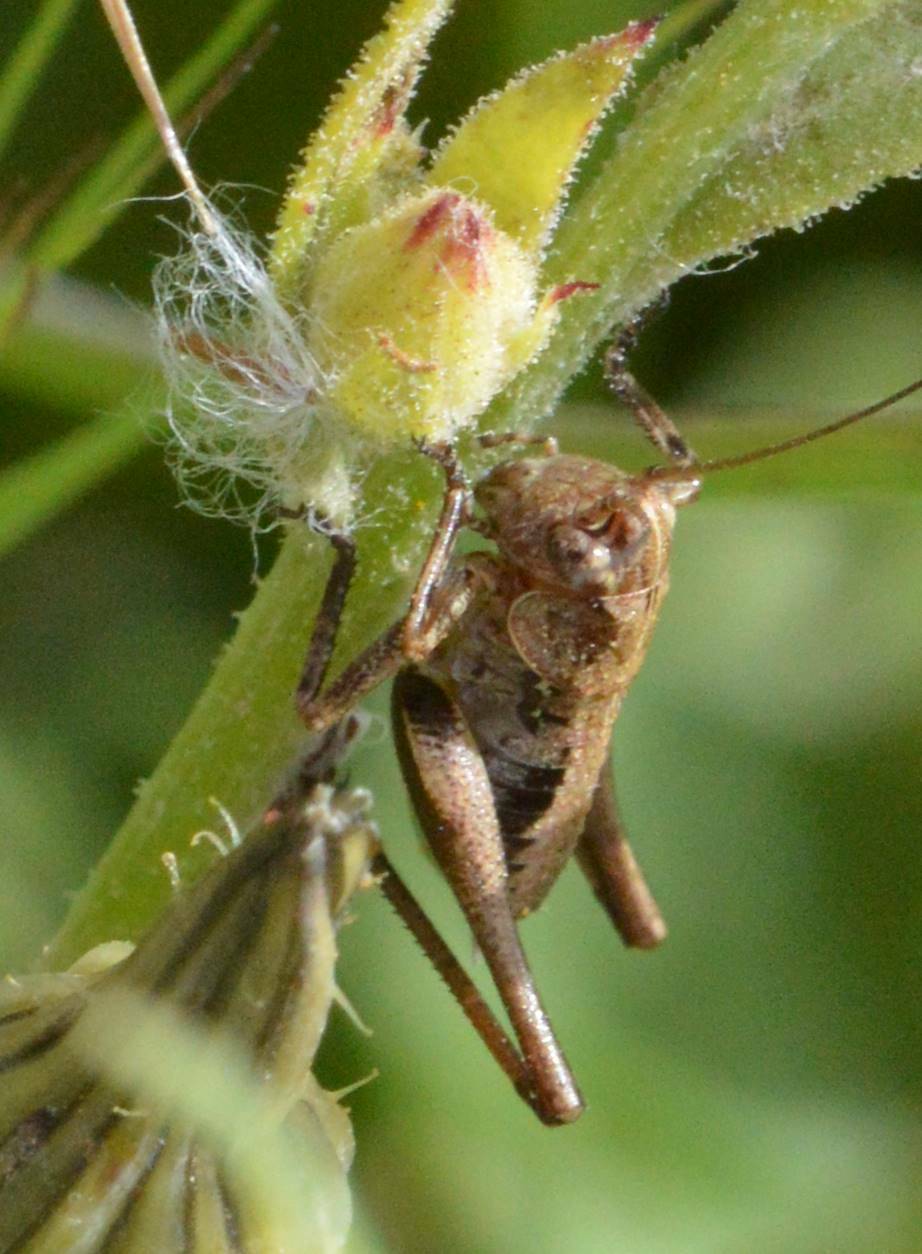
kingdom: Animalia
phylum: Arthropoda
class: Insecta
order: Orthoptera
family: Tettigoniidae
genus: Decticus
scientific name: Decticus albifrons
